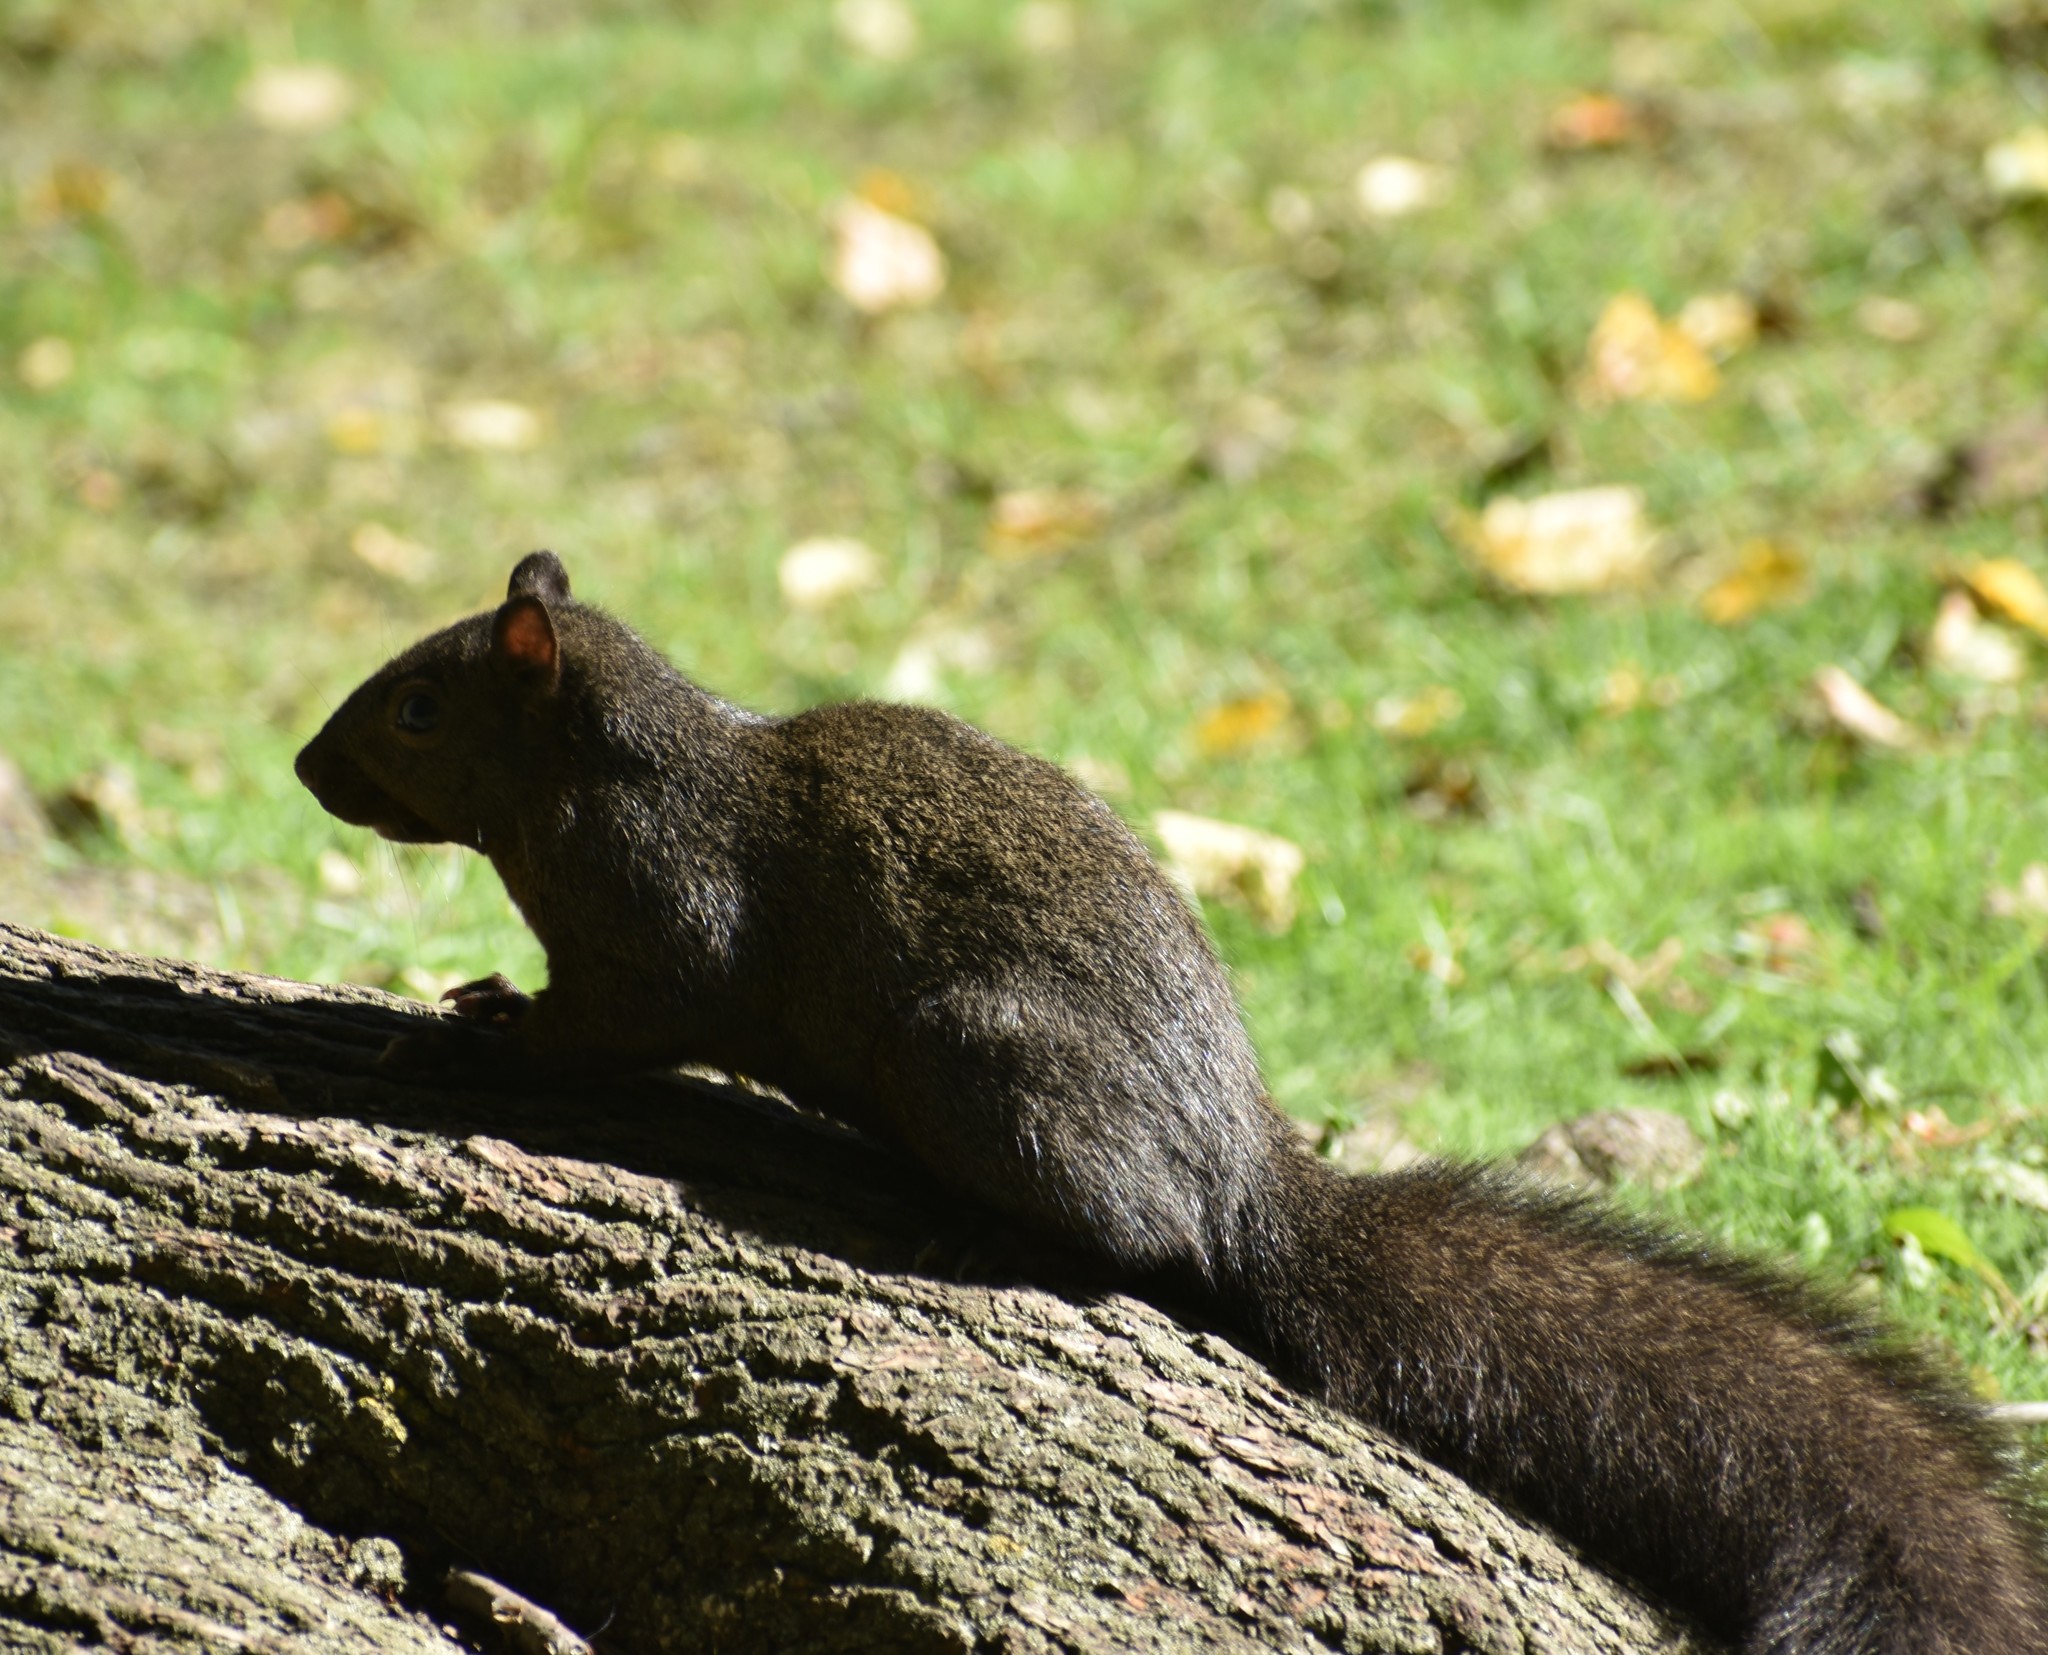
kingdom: Animalia
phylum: Chordata
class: Mammalia
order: Rodentia
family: Sciuridae
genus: Sciurus
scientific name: Sciurus carolinensis
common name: Eastern gray squirrel
